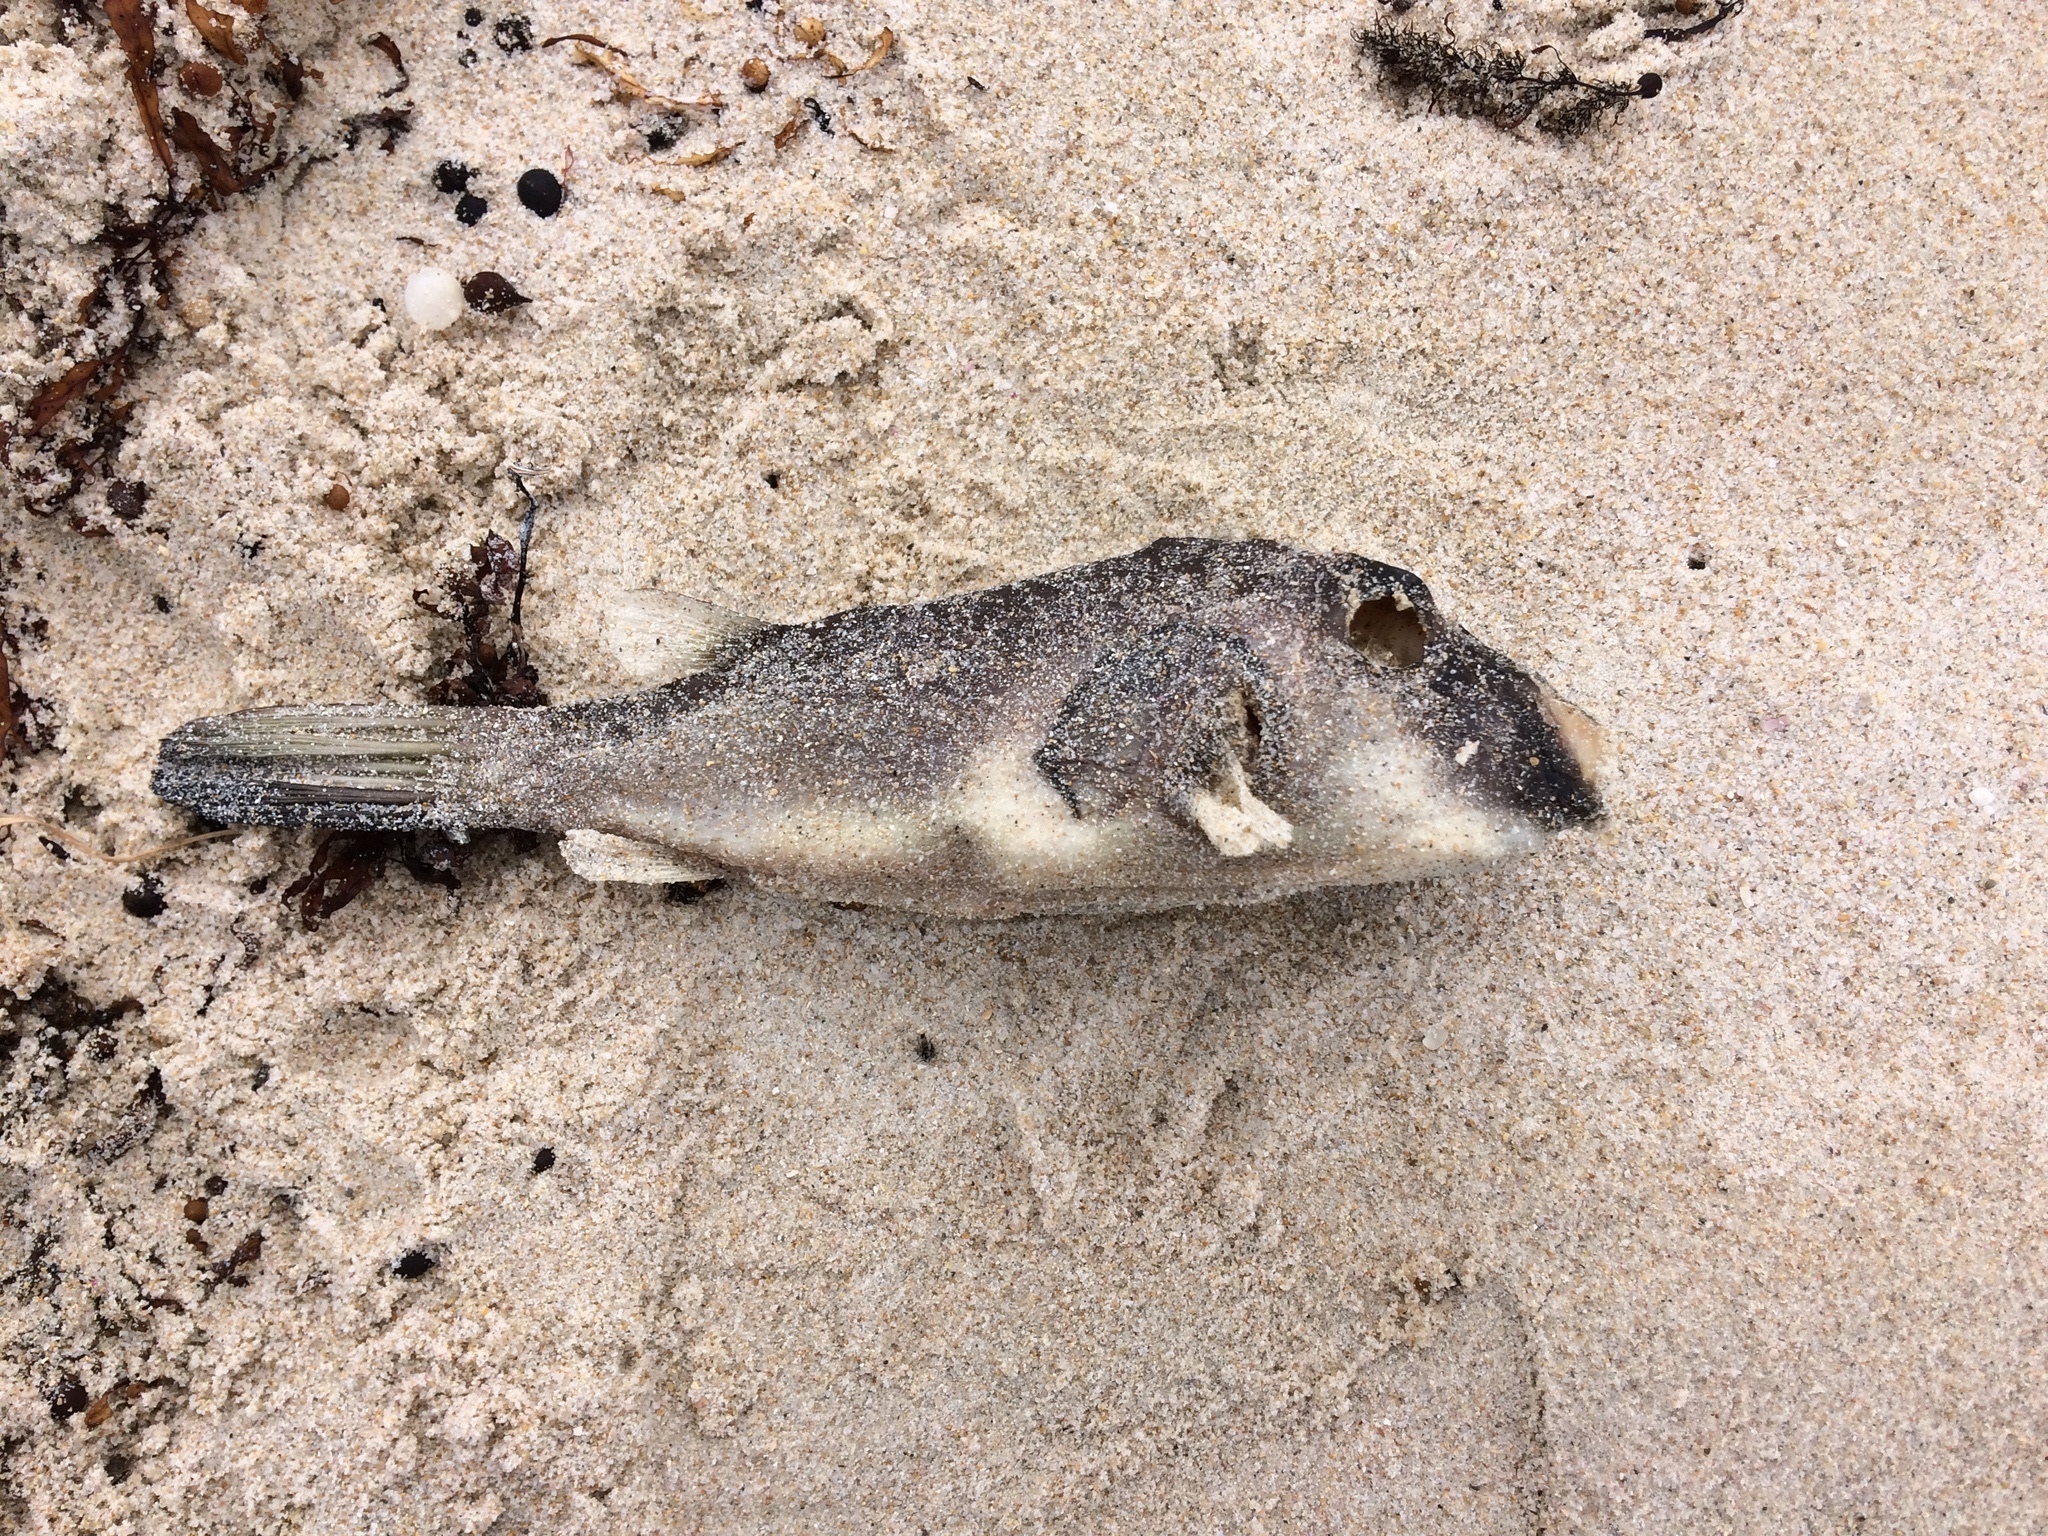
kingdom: Animalia
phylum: Chordata
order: Tetraodontiformes
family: Tetraodontidae
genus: Omegophora
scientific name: Omegophora armilla
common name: Ringed pufferfish
